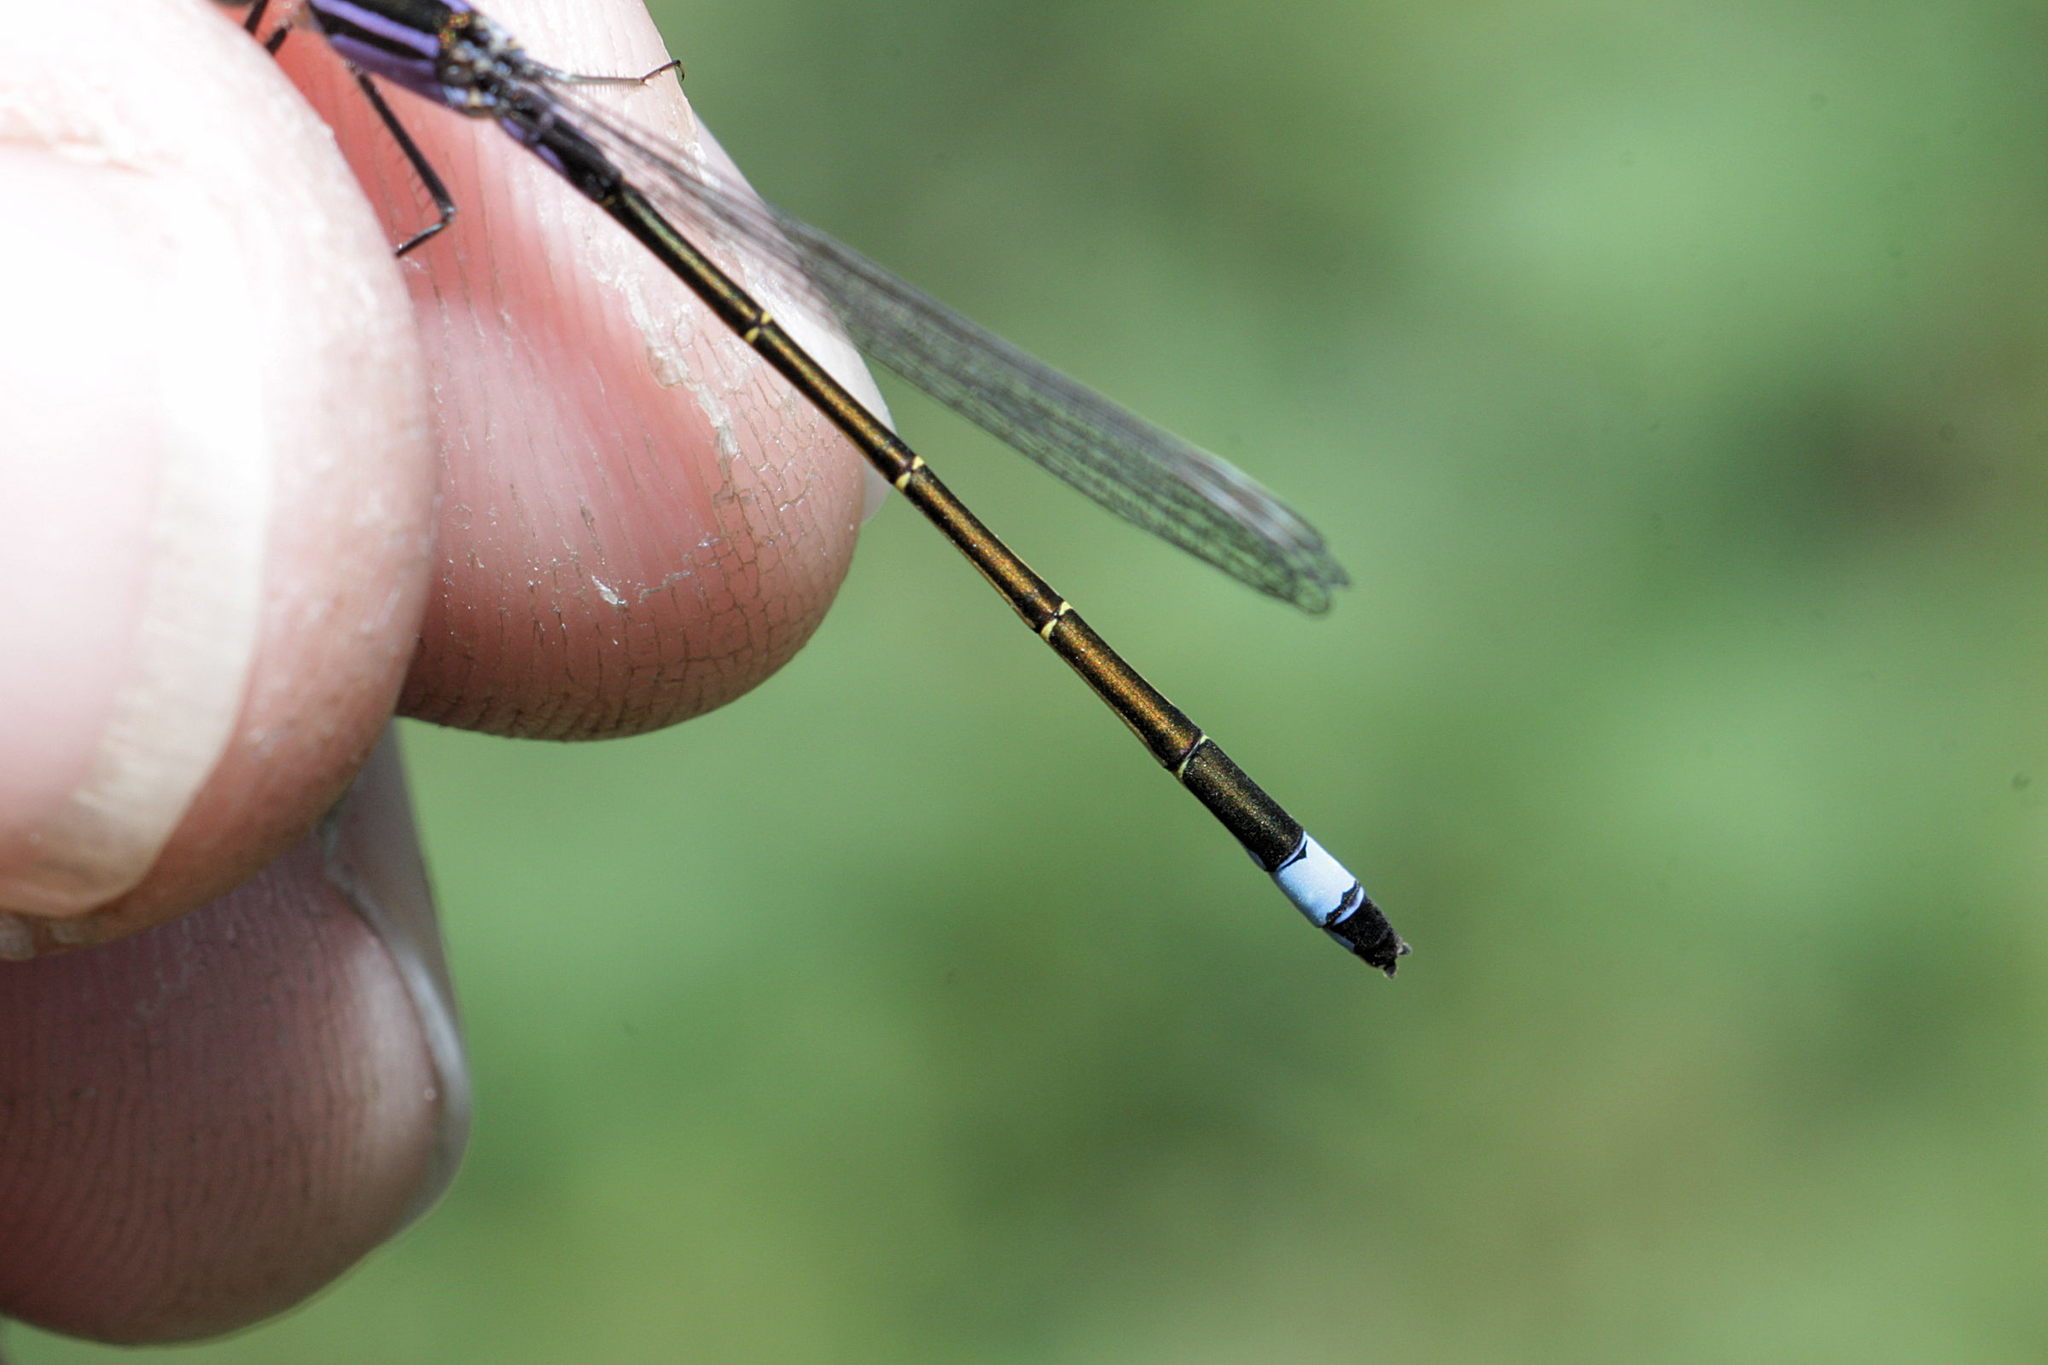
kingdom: Animalia
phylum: Arthropoda
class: Insecta
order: Odonata
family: Coenagrionidae
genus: Ischnura
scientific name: Ischnura elegans
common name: Blue-tailed damselfly
